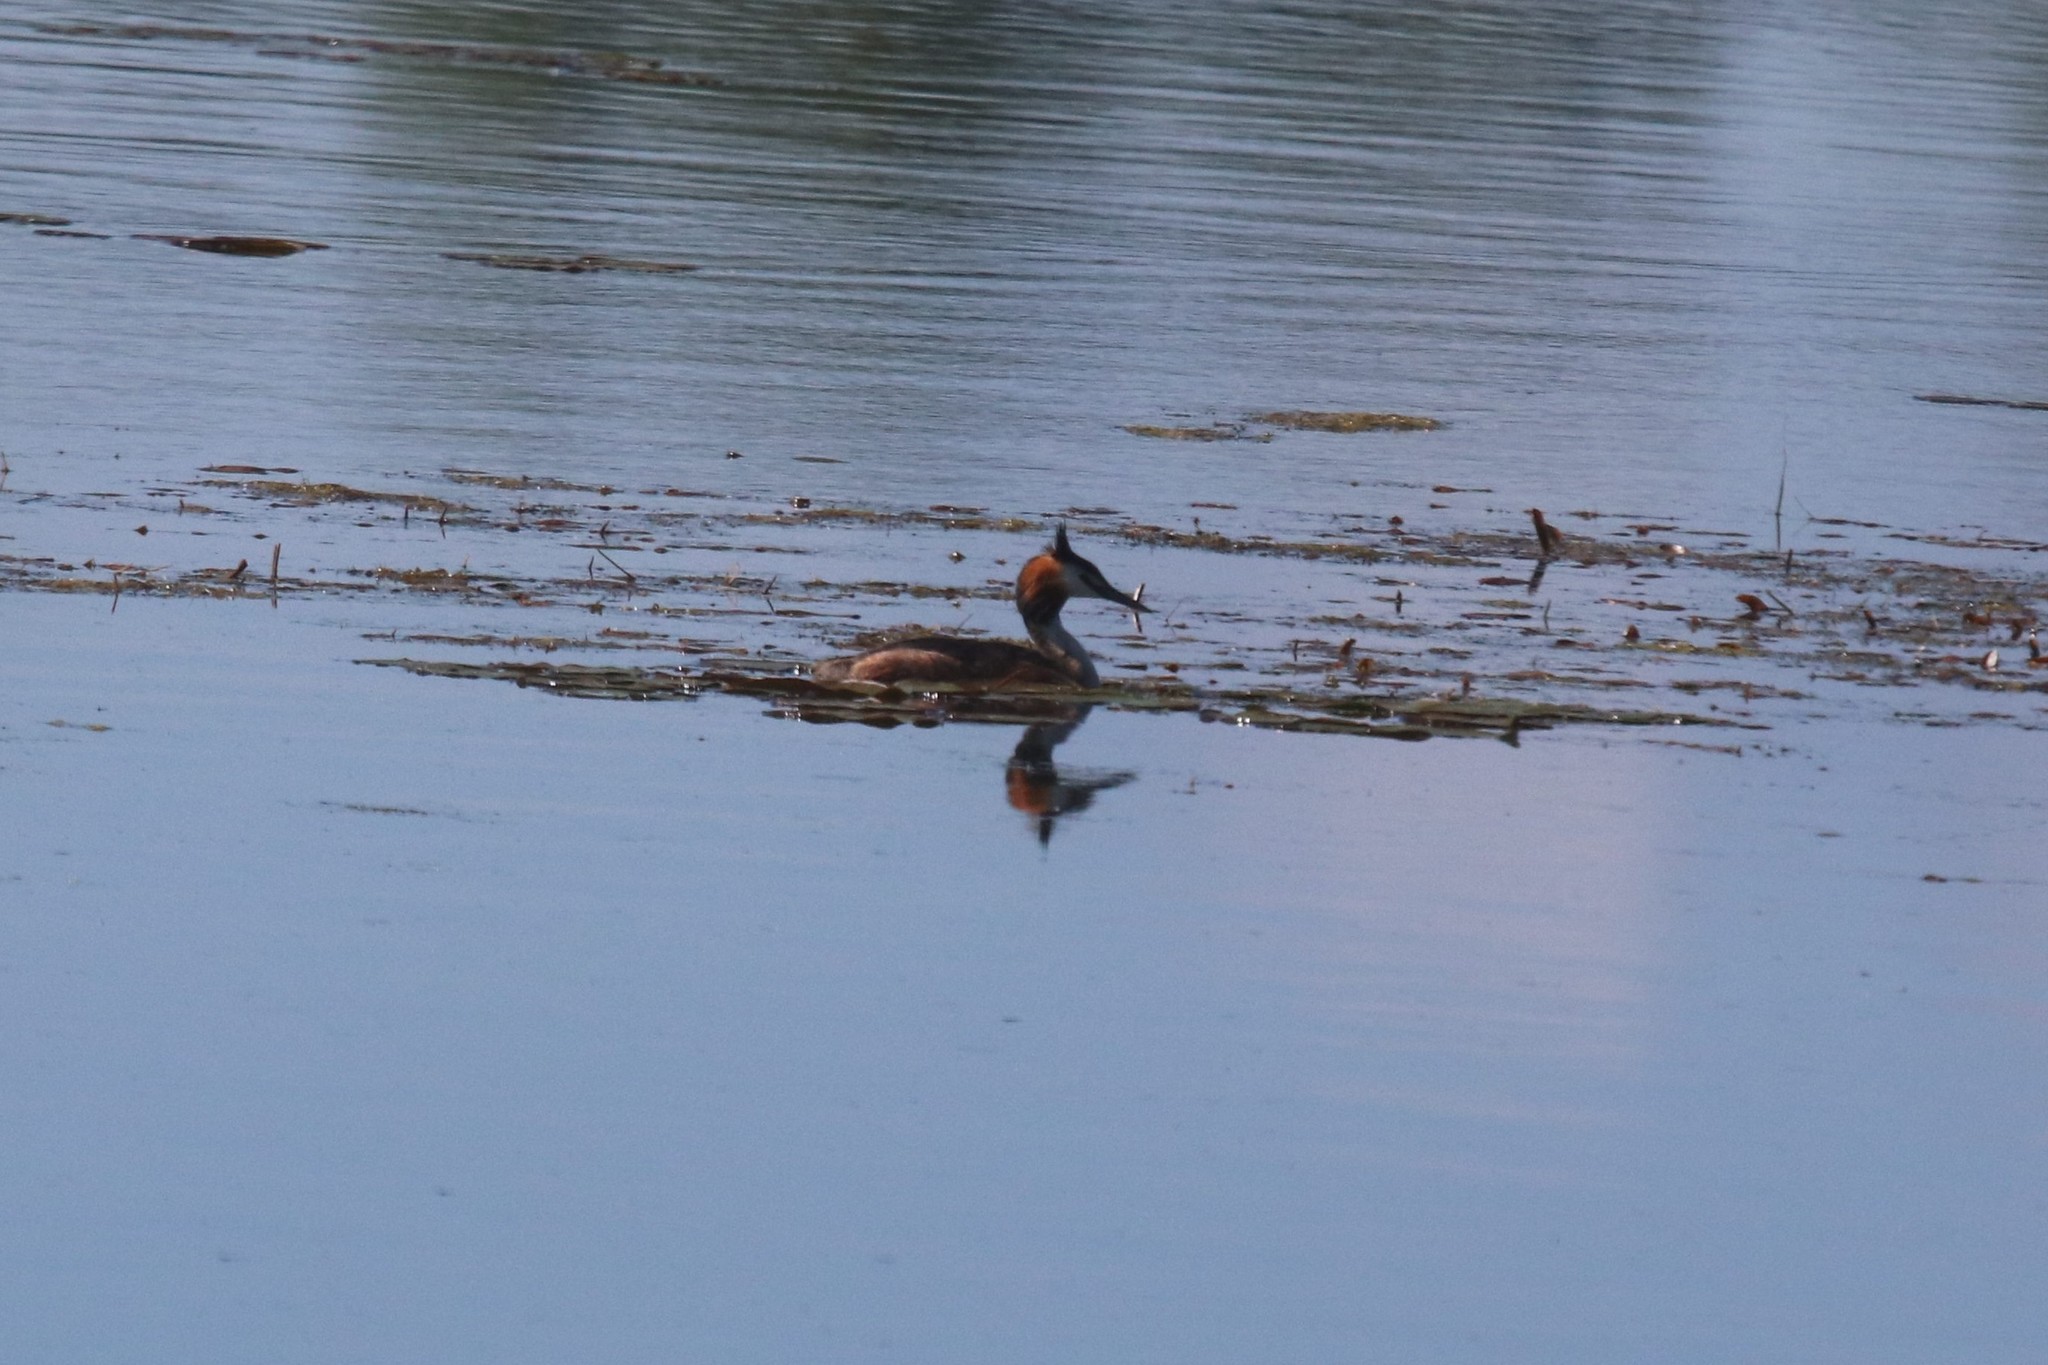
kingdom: Animalia
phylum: Chordata
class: Aves
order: Podicipediformes
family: Podicipedidae
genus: Podiceps
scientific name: Podiceps cristatus
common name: Great crested grebe
